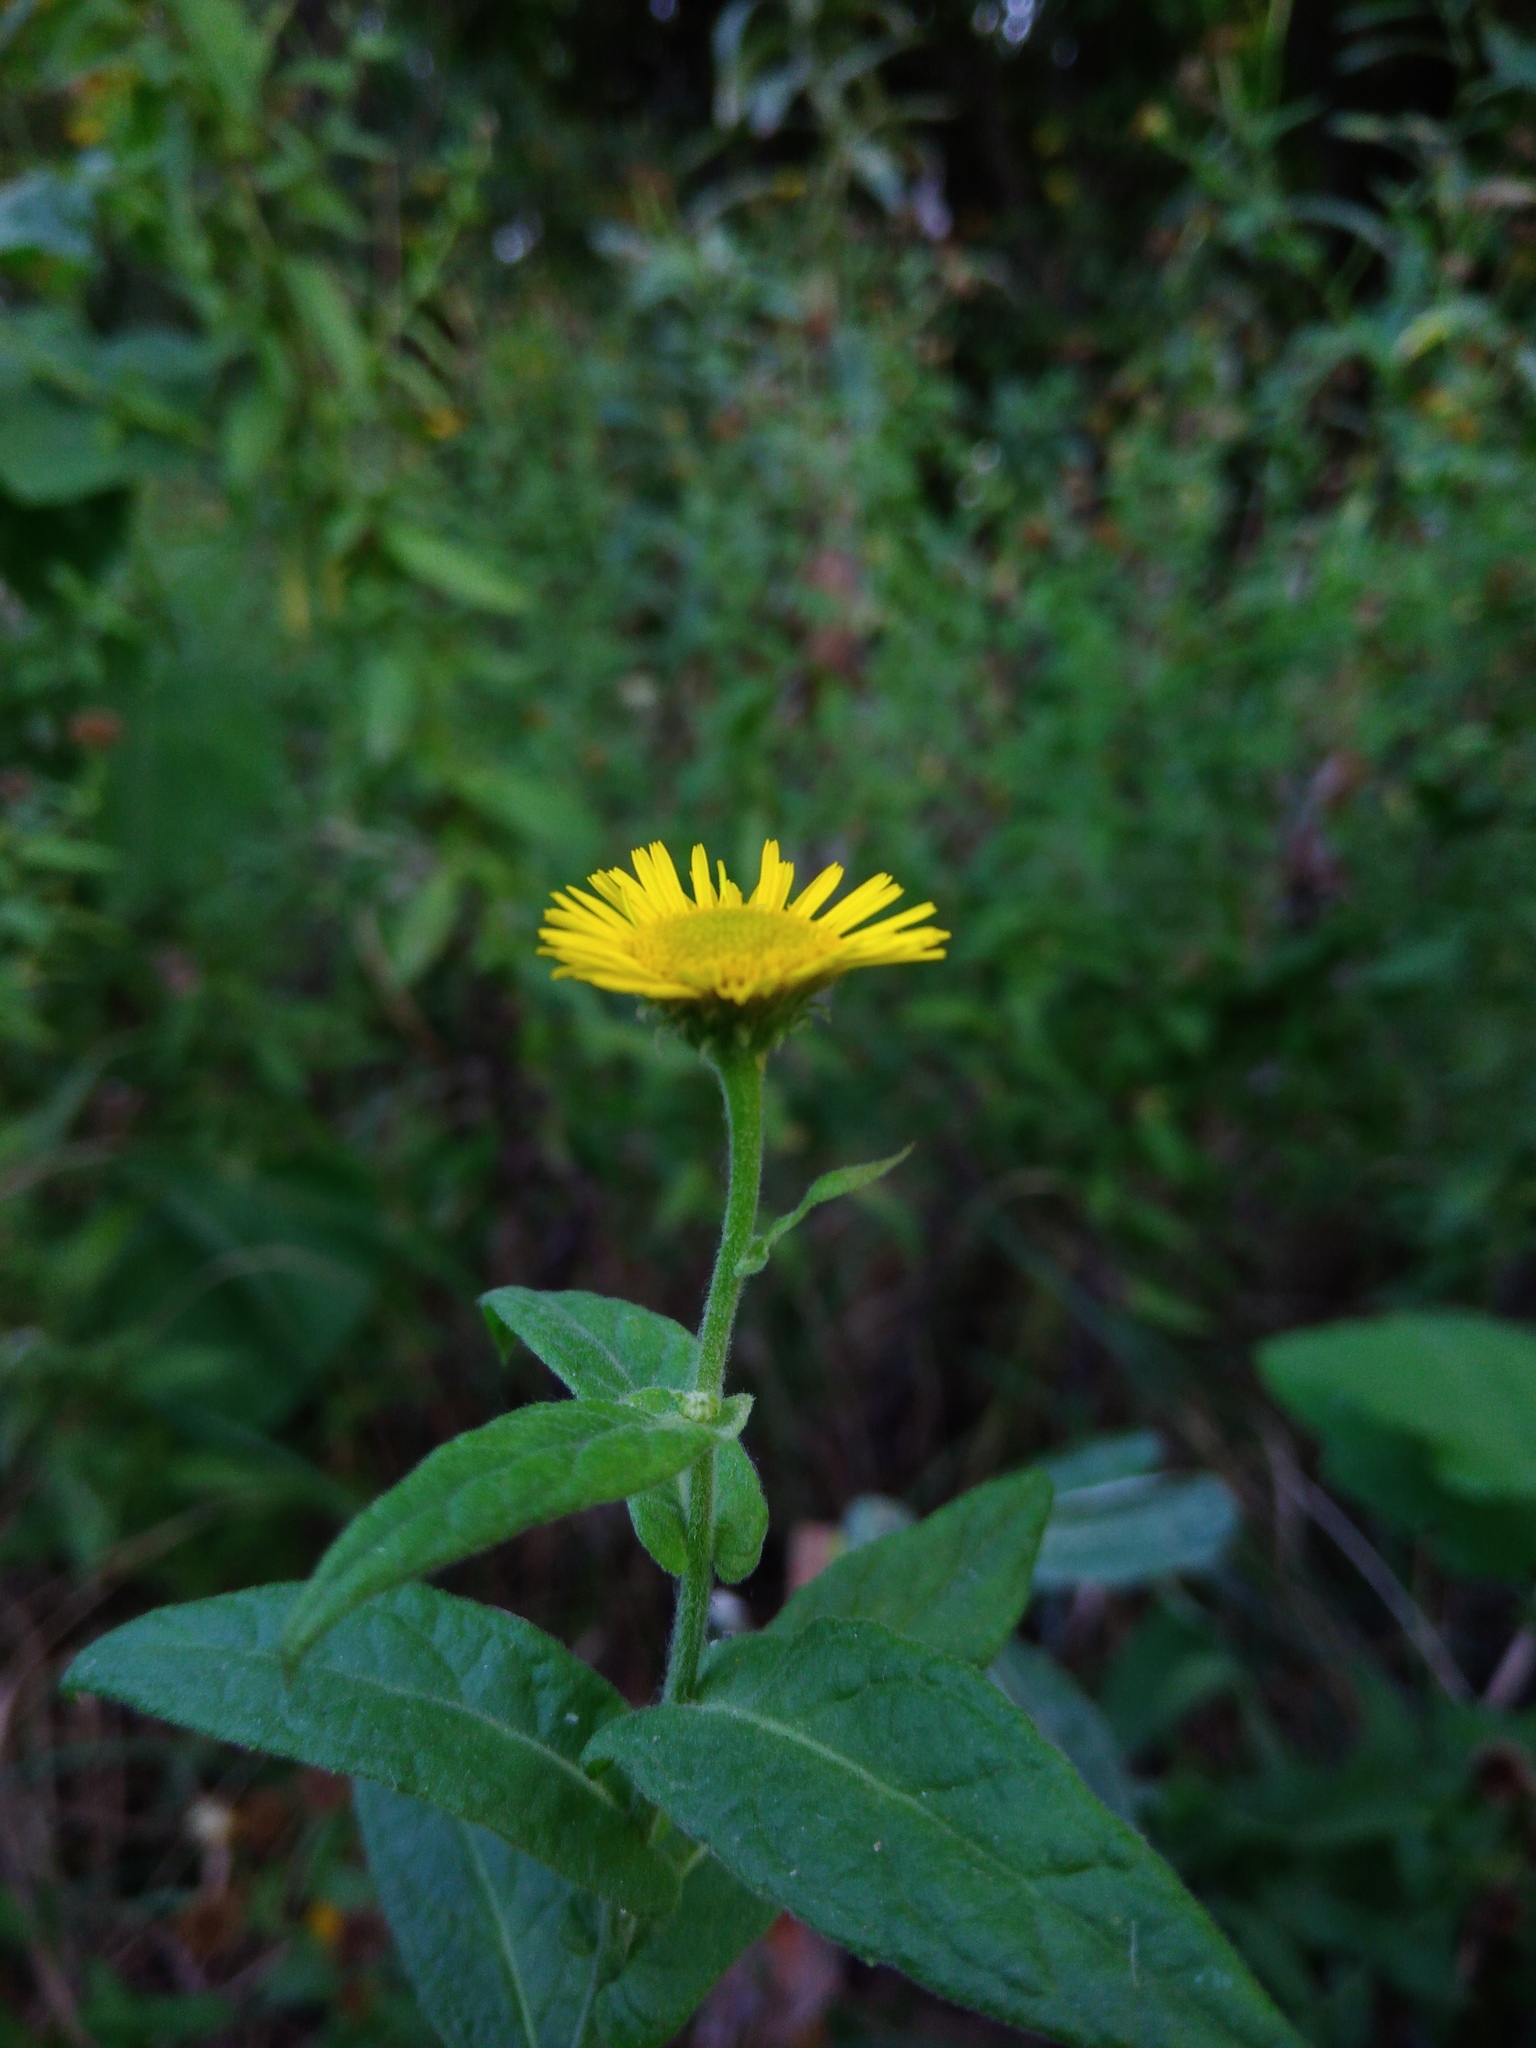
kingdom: Plantae
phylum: Tracheophyta
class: Magnoliopsida
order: Asterales
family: Asteraceae
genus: Pulicaria
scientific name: Pulicaria dysenterica
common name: Common fleabane
